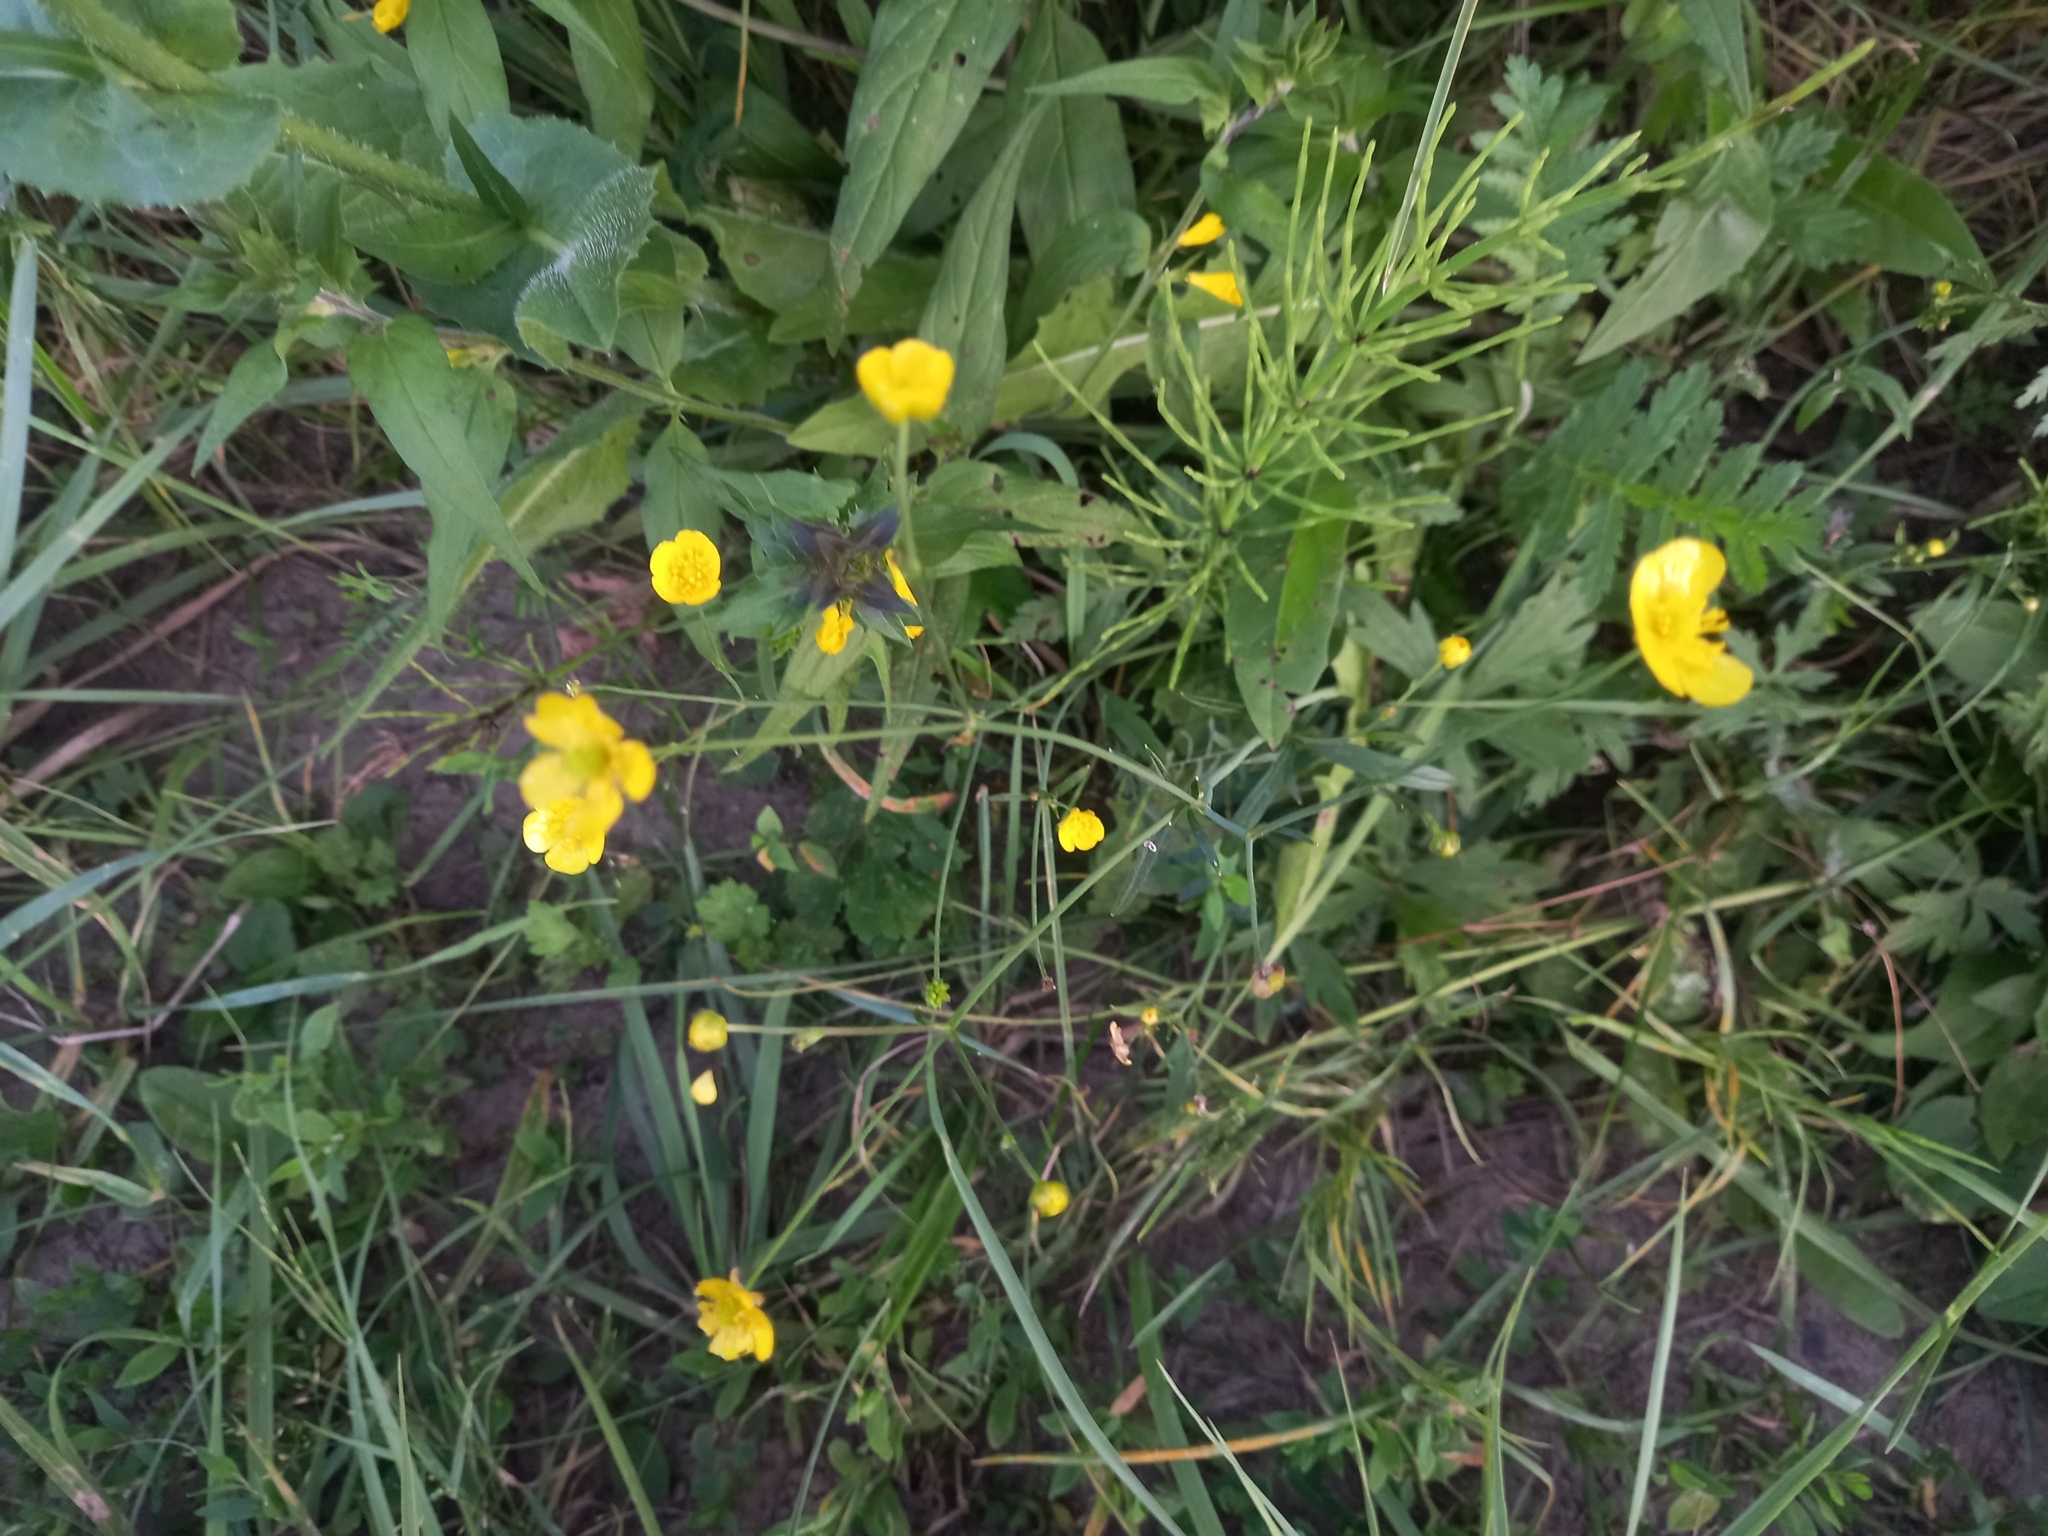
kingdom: Plantae
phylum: Tracheophyta
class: Magnoliopsida
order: Ranunculales
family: Ranunculaceae
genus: Ranunculus
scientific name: Ranunculus acris
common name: Meadow buttercup
